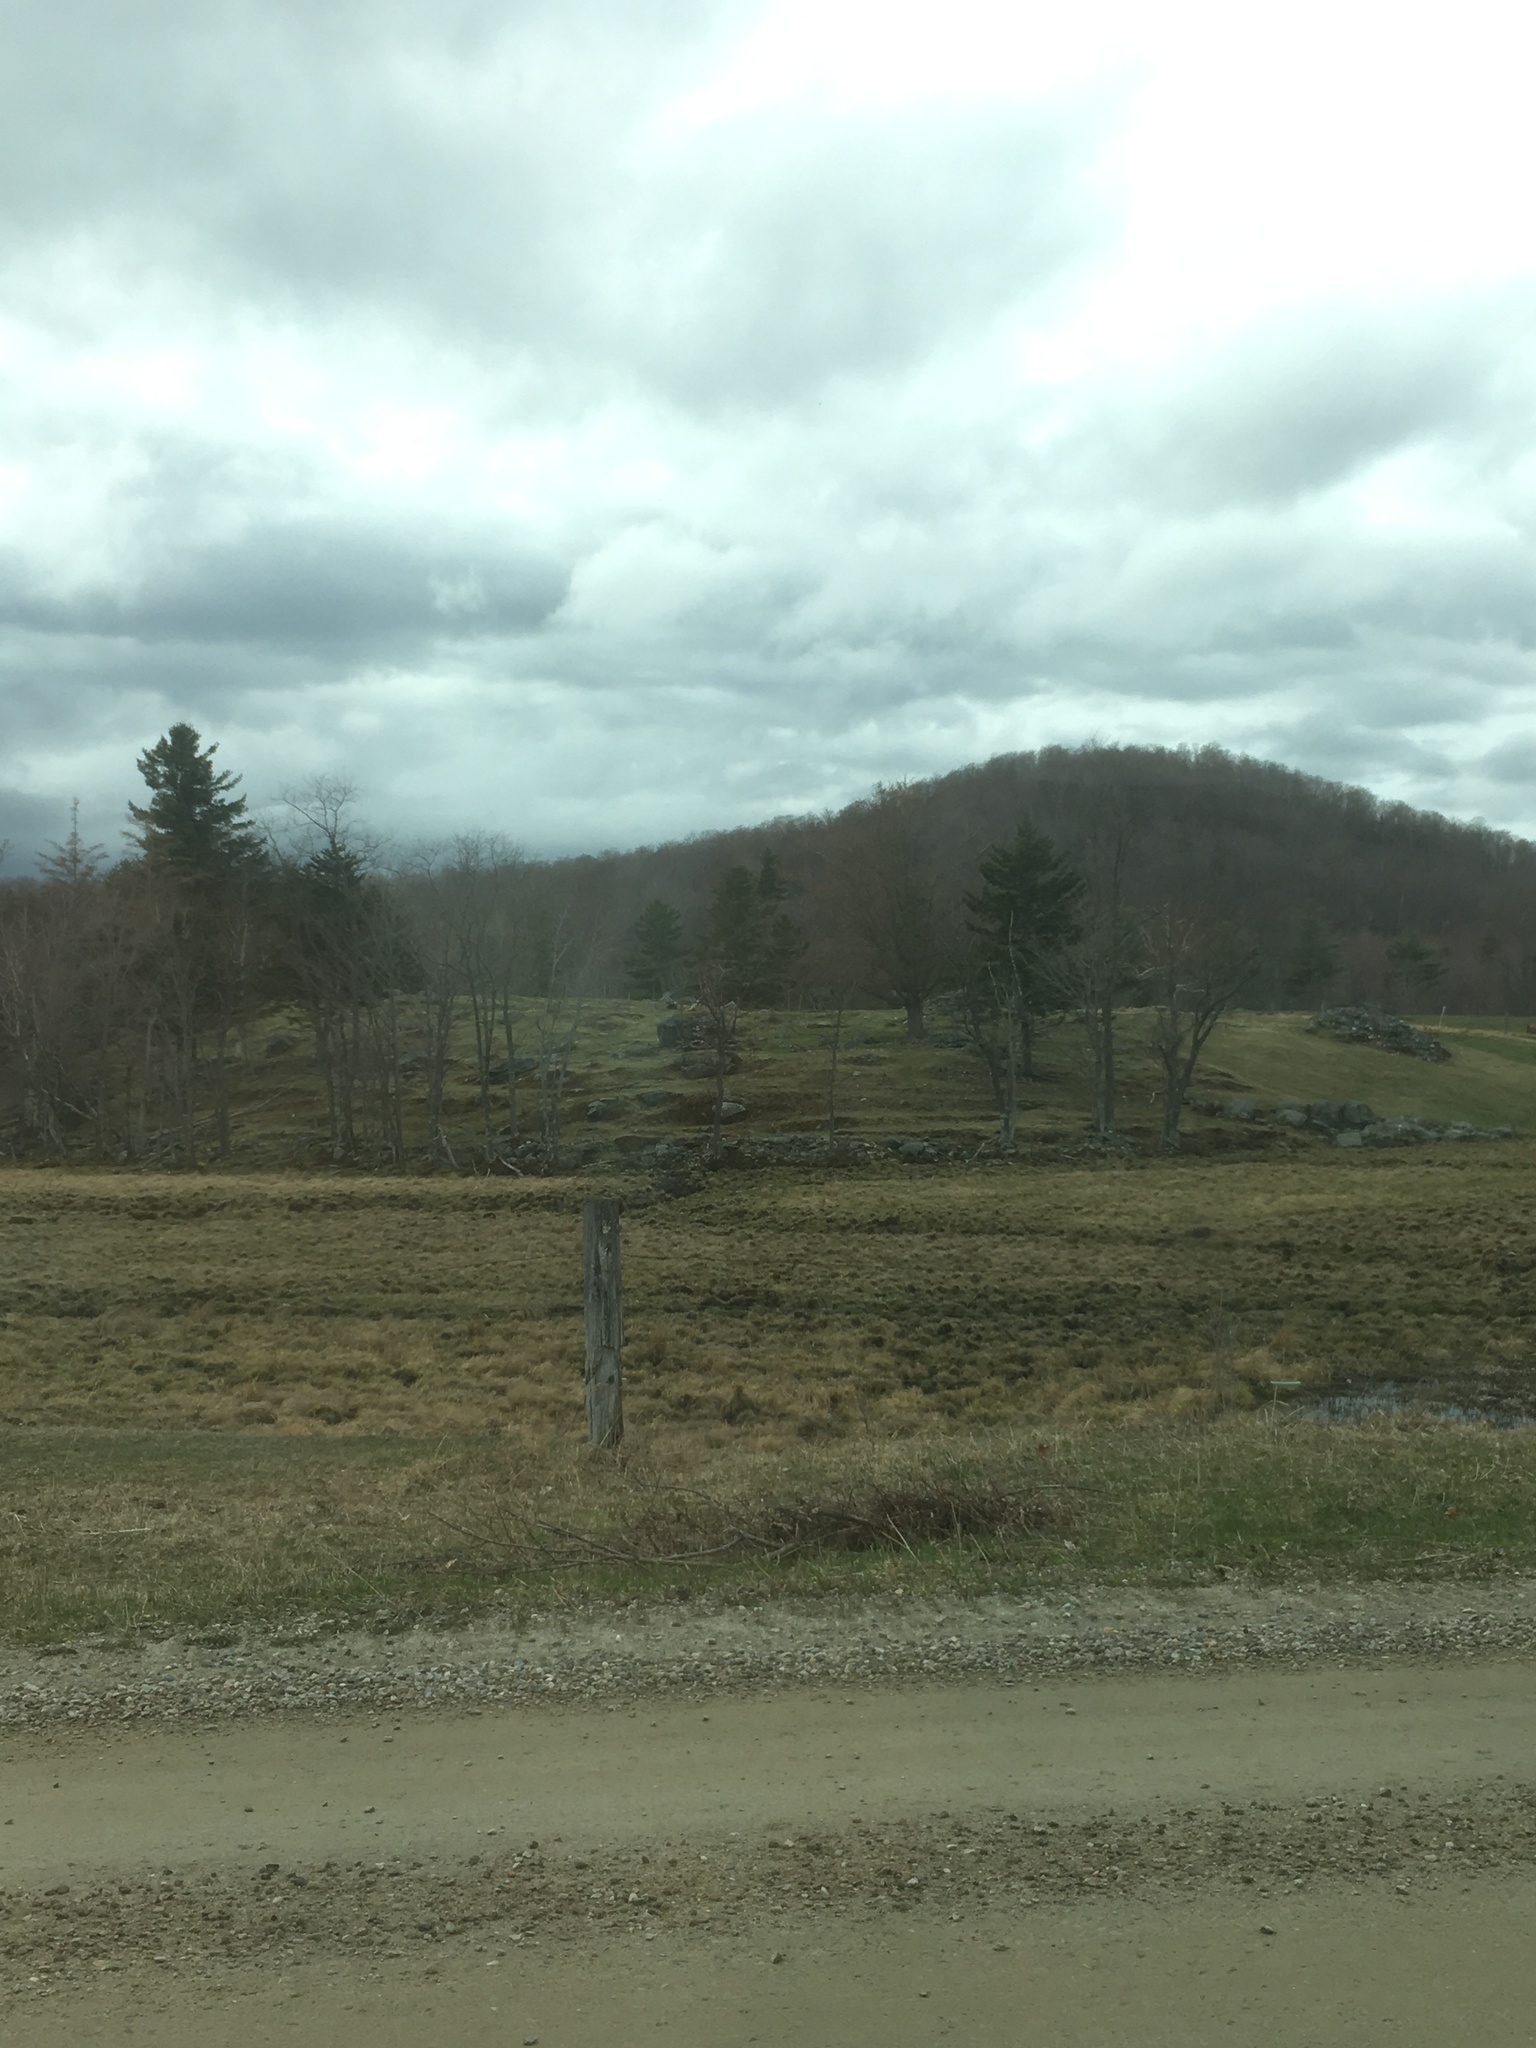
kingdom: Plantae
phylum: Tracheophyta
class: Pinopsida
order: Pinales
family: Pinaceae
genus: Pinus
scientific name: Pinus strobus
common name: Weymouth pine
